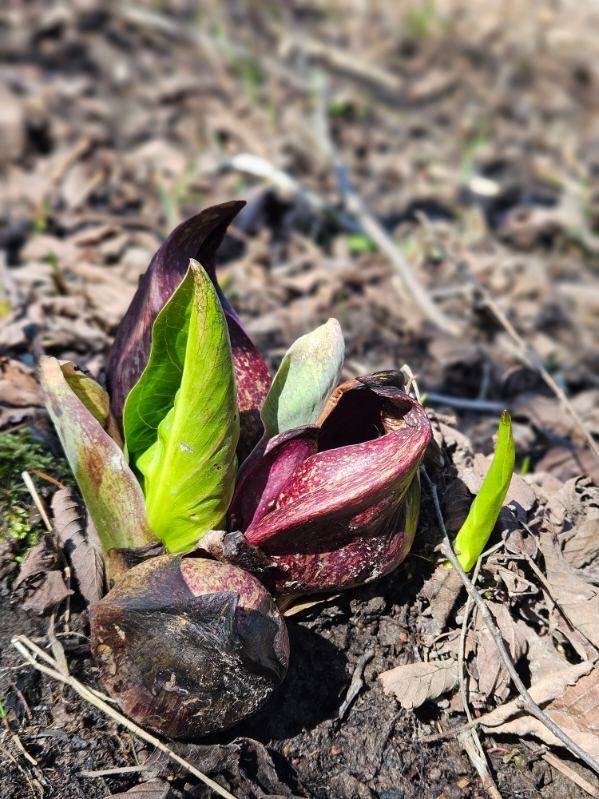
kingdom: Plantae
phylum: Tracheophyta
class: Liliopsida
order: Alismatales
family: Araceae
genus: Symplocarpus
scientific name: Symplocarpus foetidus
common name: Eastern skunk cabbage
